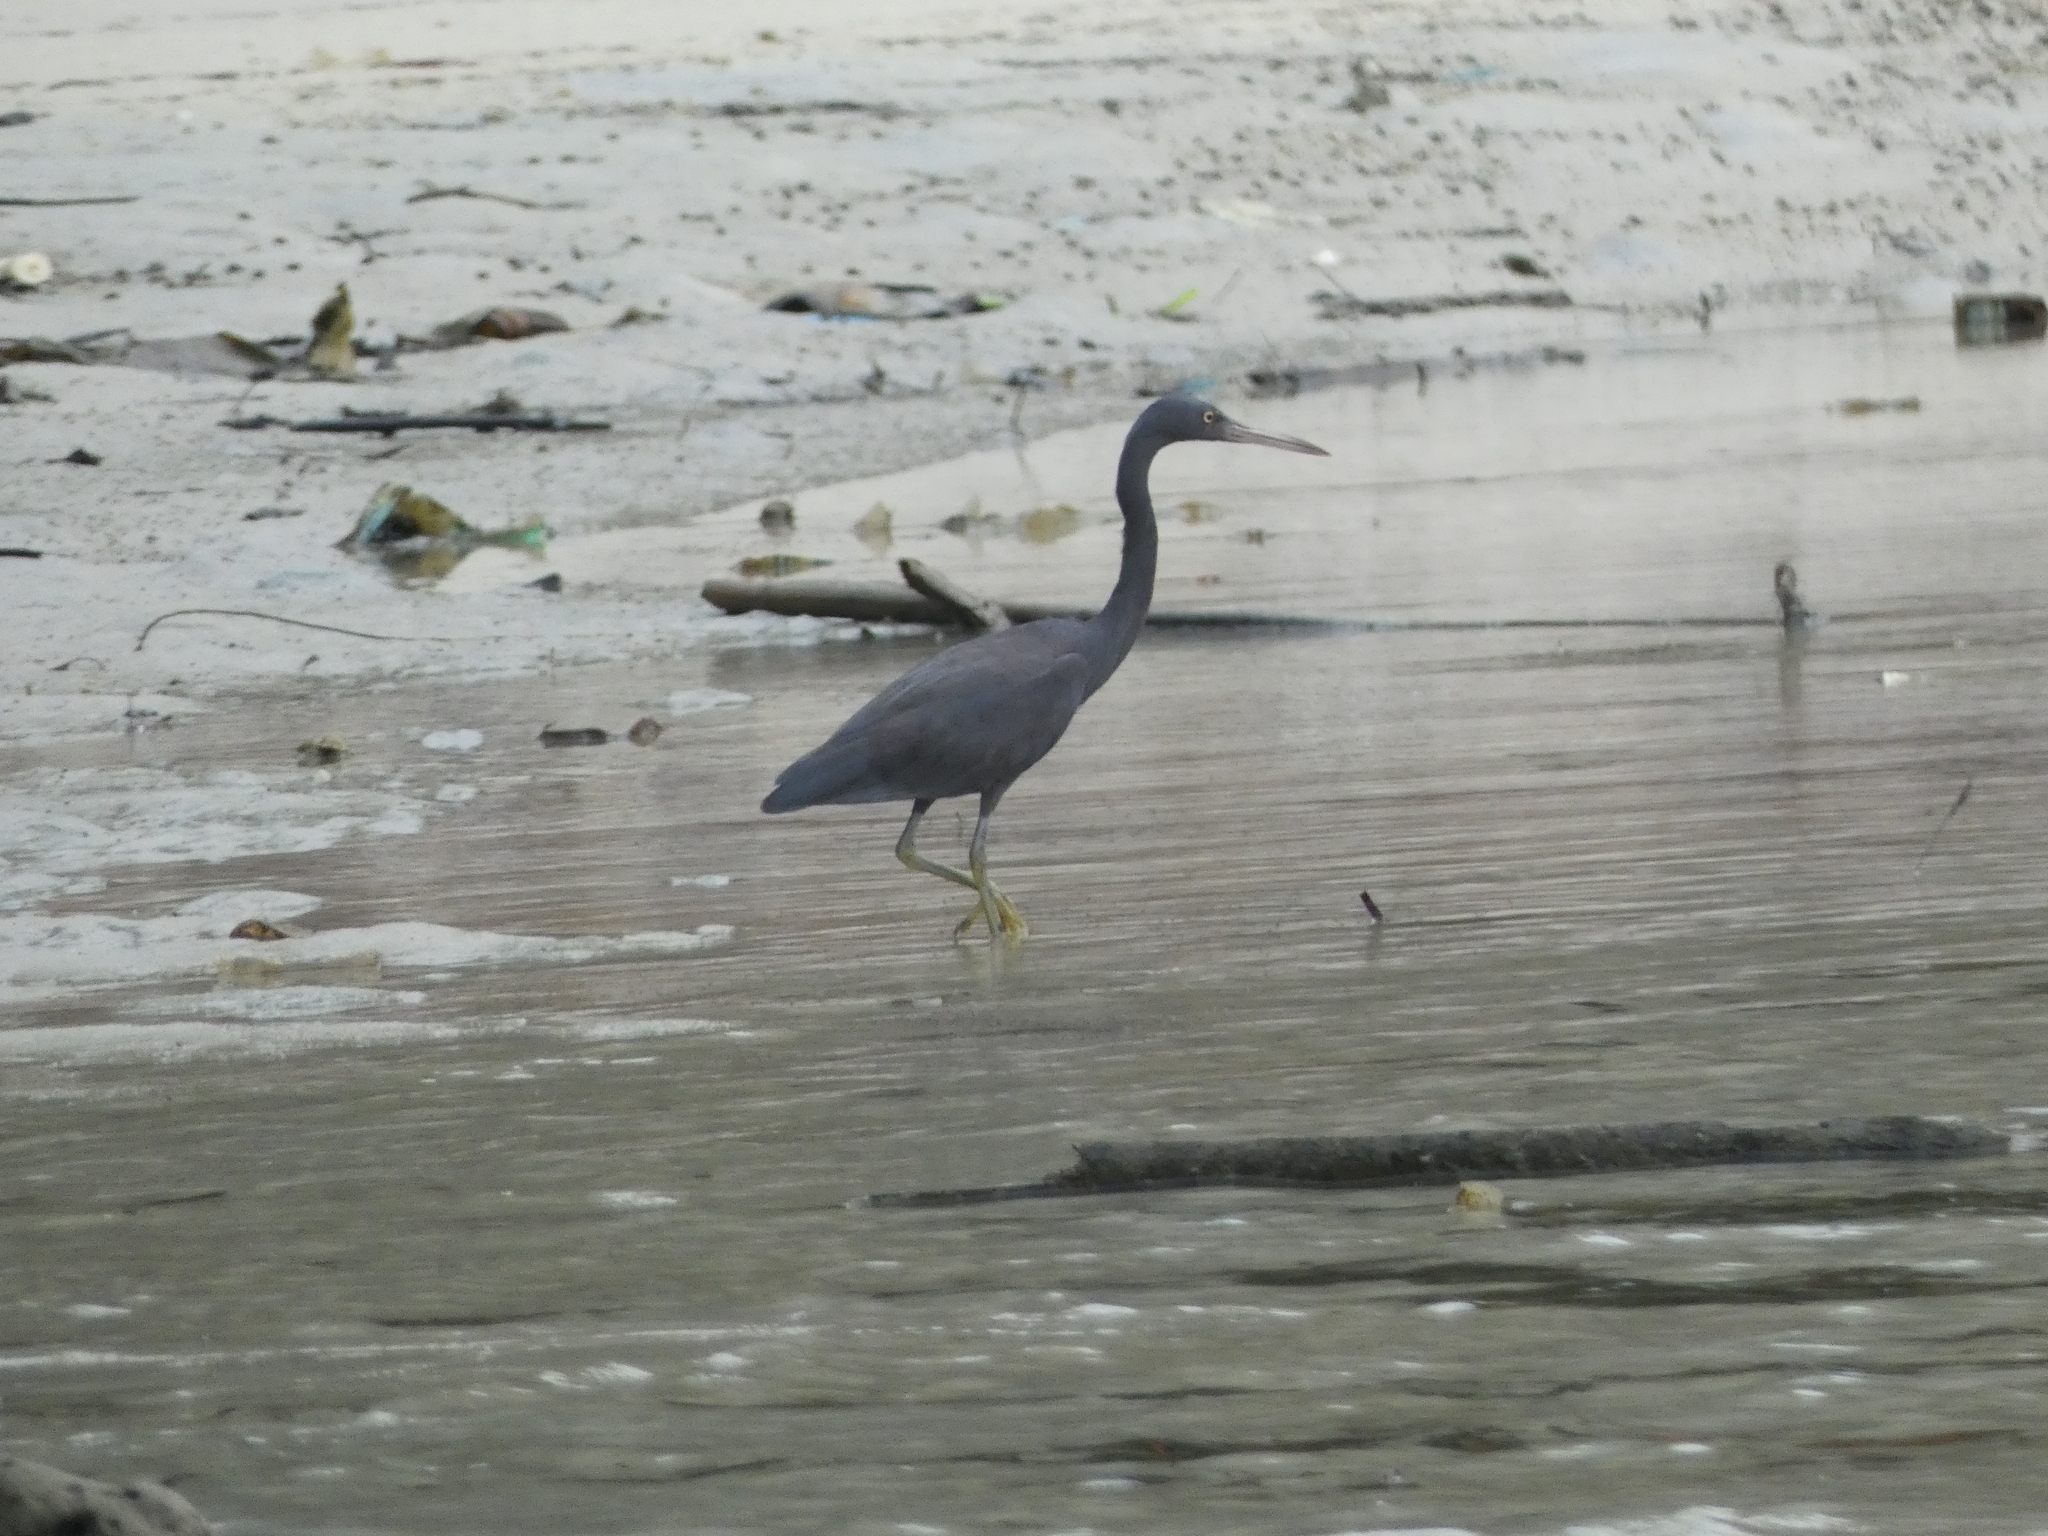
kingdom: Animalia
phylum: Chordata
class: Aves
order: Pelecaniformes
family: Ardeidae
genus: Egretta
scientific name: Egretta sacra
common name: Pacific reef heron
